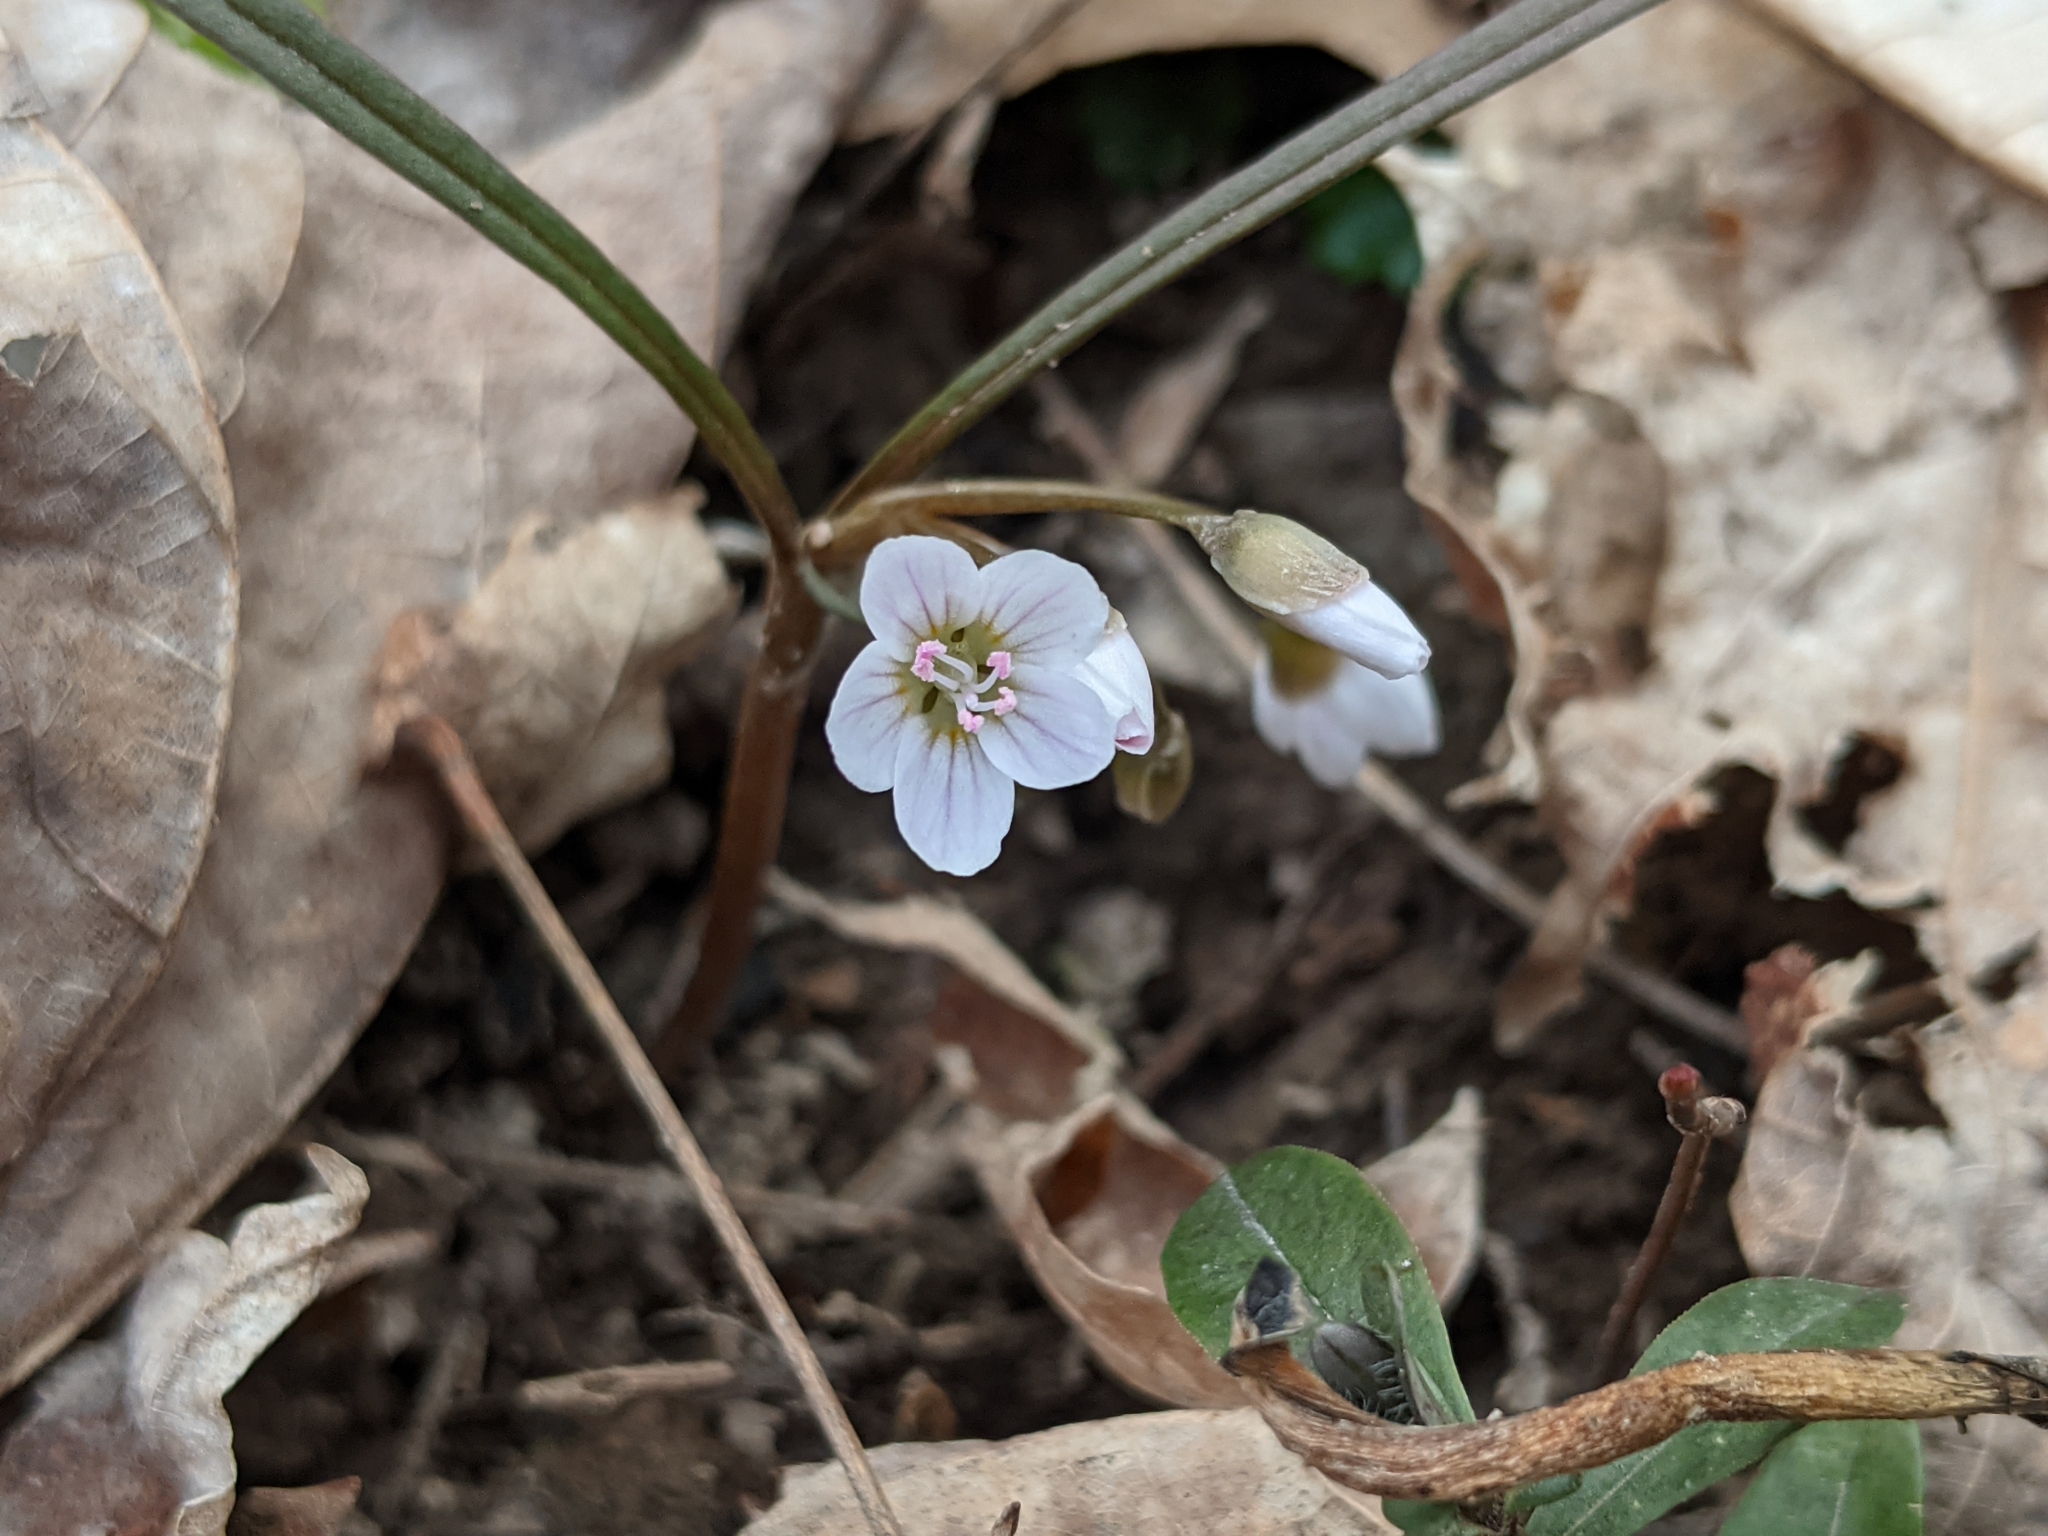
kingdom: Plantae
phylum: Tracheophyta
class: Magnoliopsida
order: Caryophyllales
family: Montiaceae
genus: Claytonia
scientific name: Claytonia virginica
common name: Virginia springbeauty
